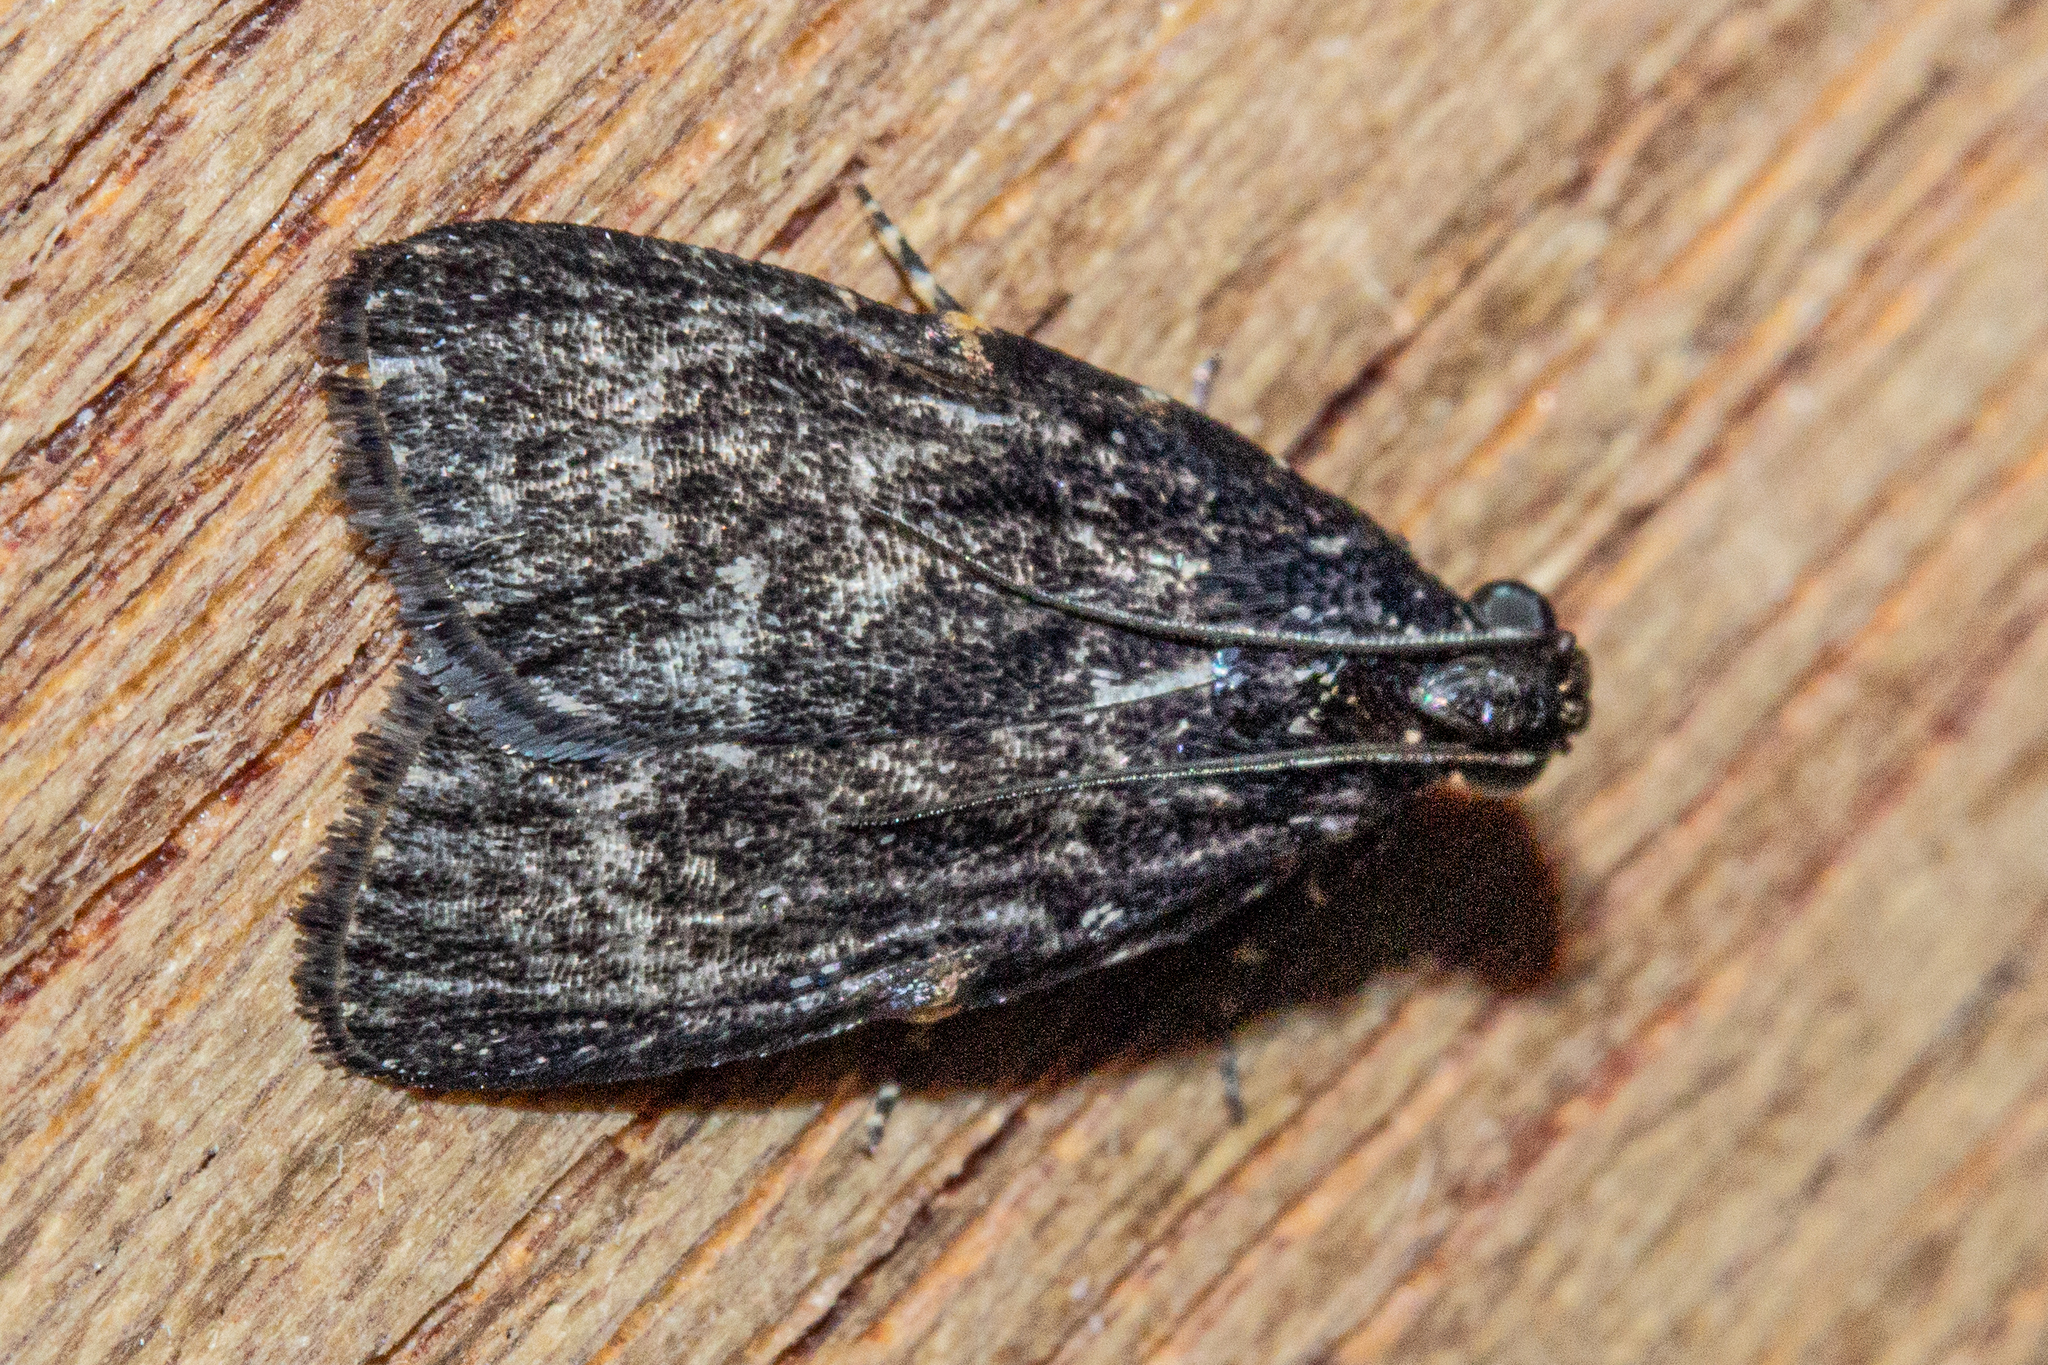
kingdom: Animalia
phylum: Arthropoda
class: Insecta
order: Lepidoptera
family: Pyralidae
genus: Stericta
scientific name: Stericta carbonalis
